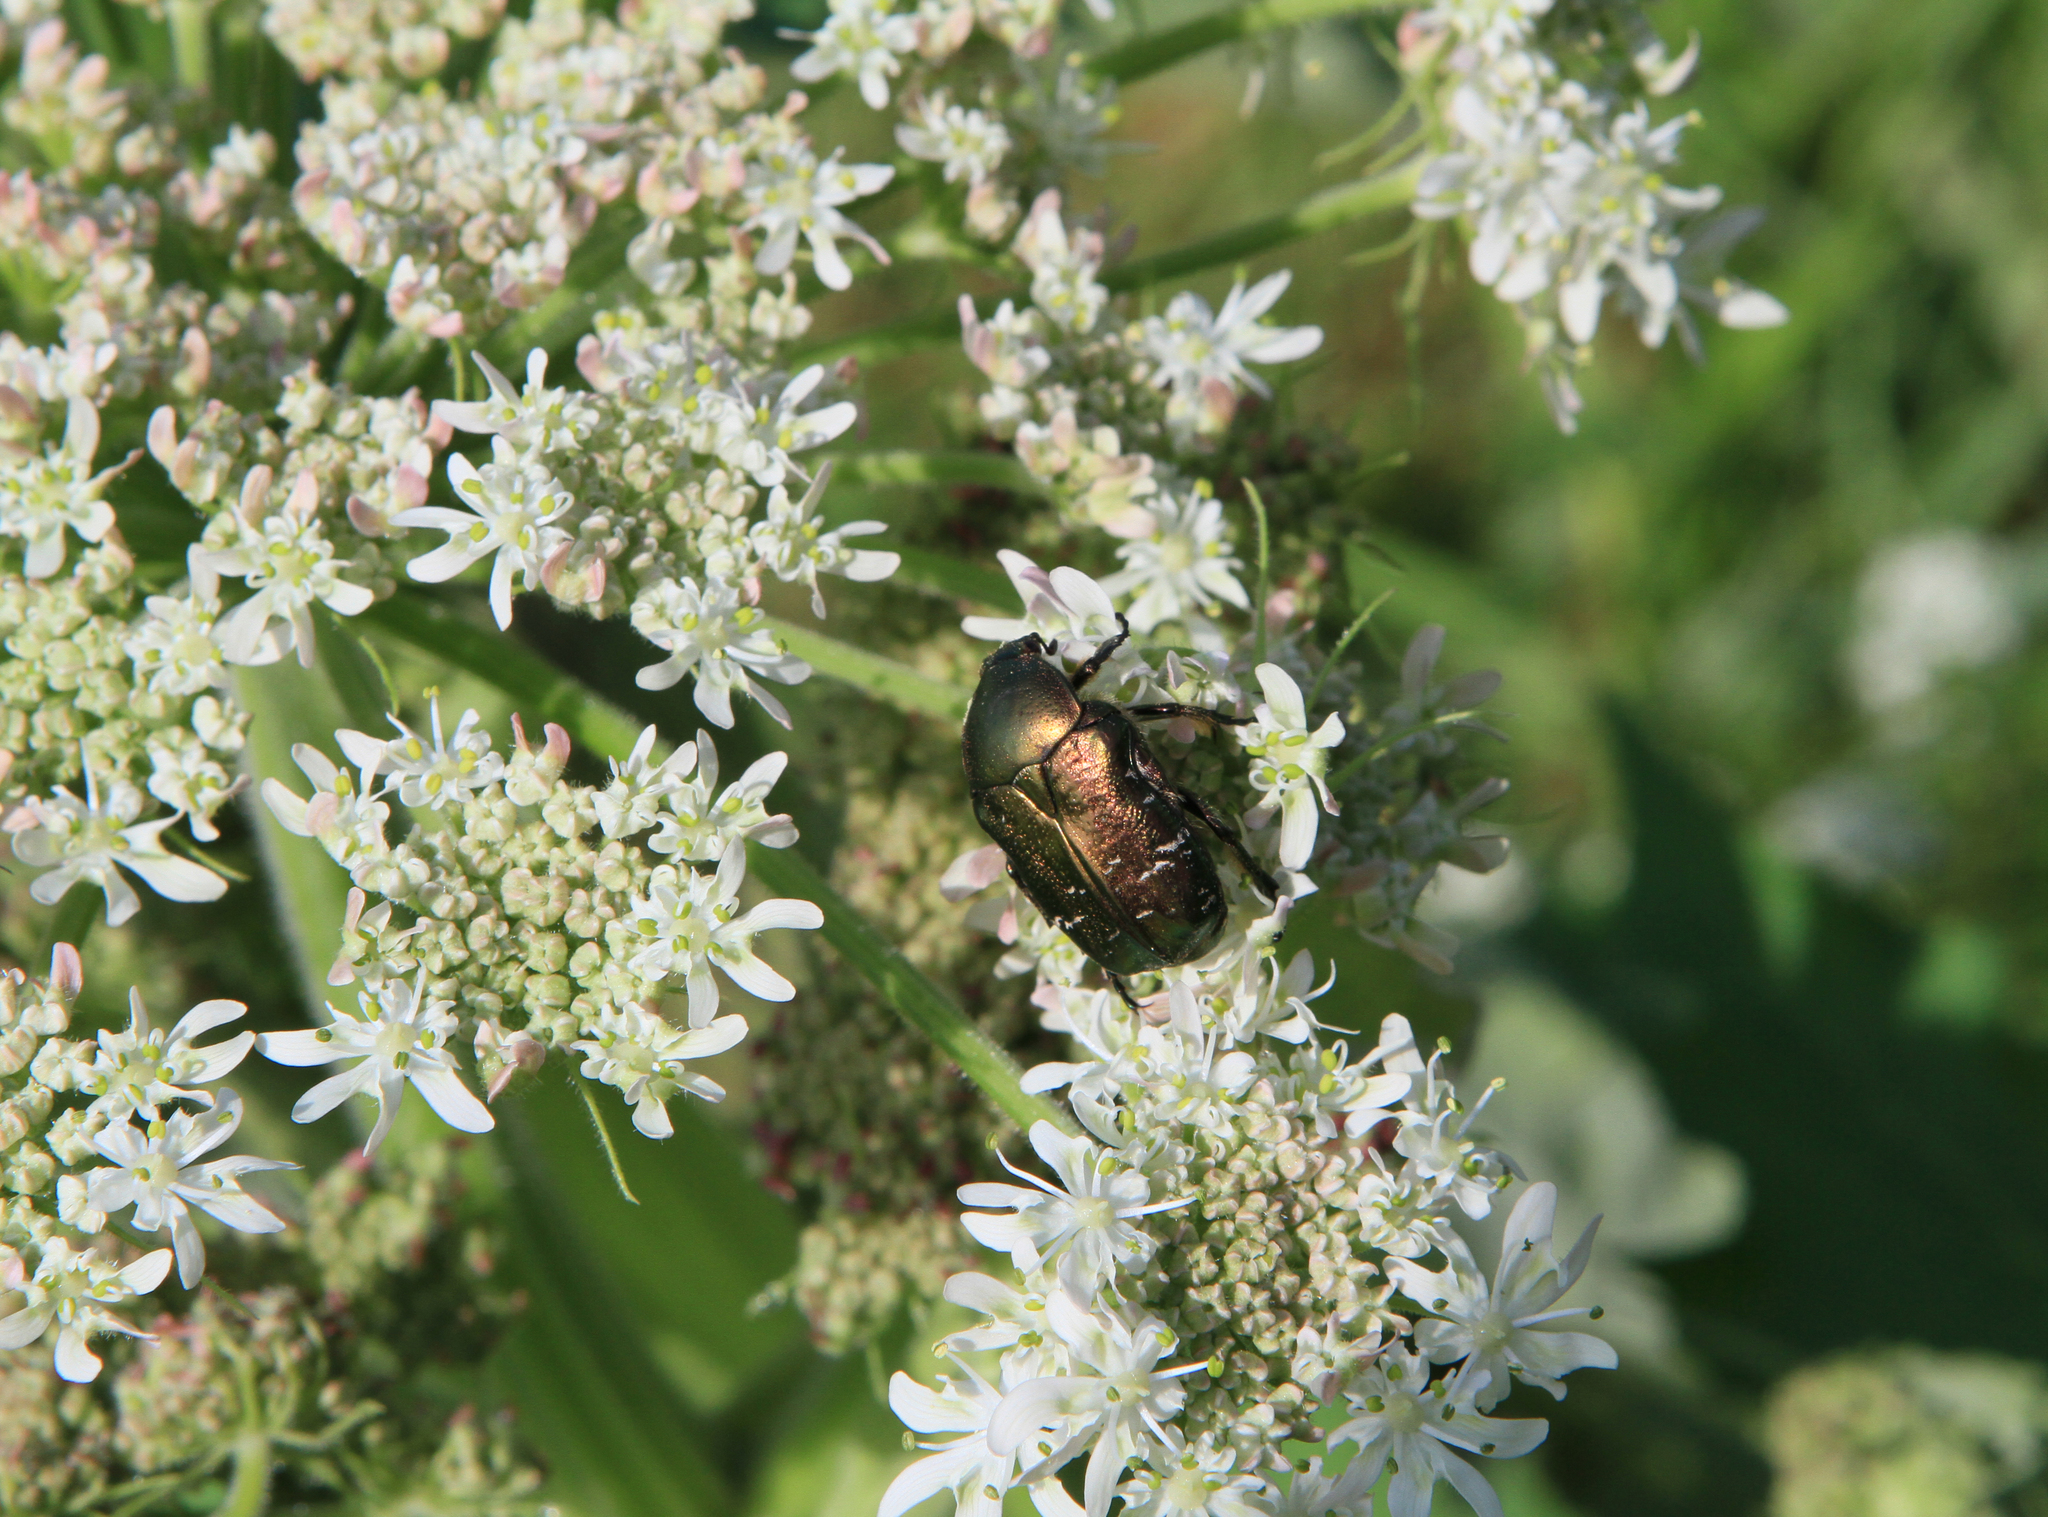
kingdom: Plantae
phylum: Tracheophyta
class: Magnoliopsida
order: Apiales
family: Apiaceae
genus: Heracleum
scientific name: Heracleum dissectum
